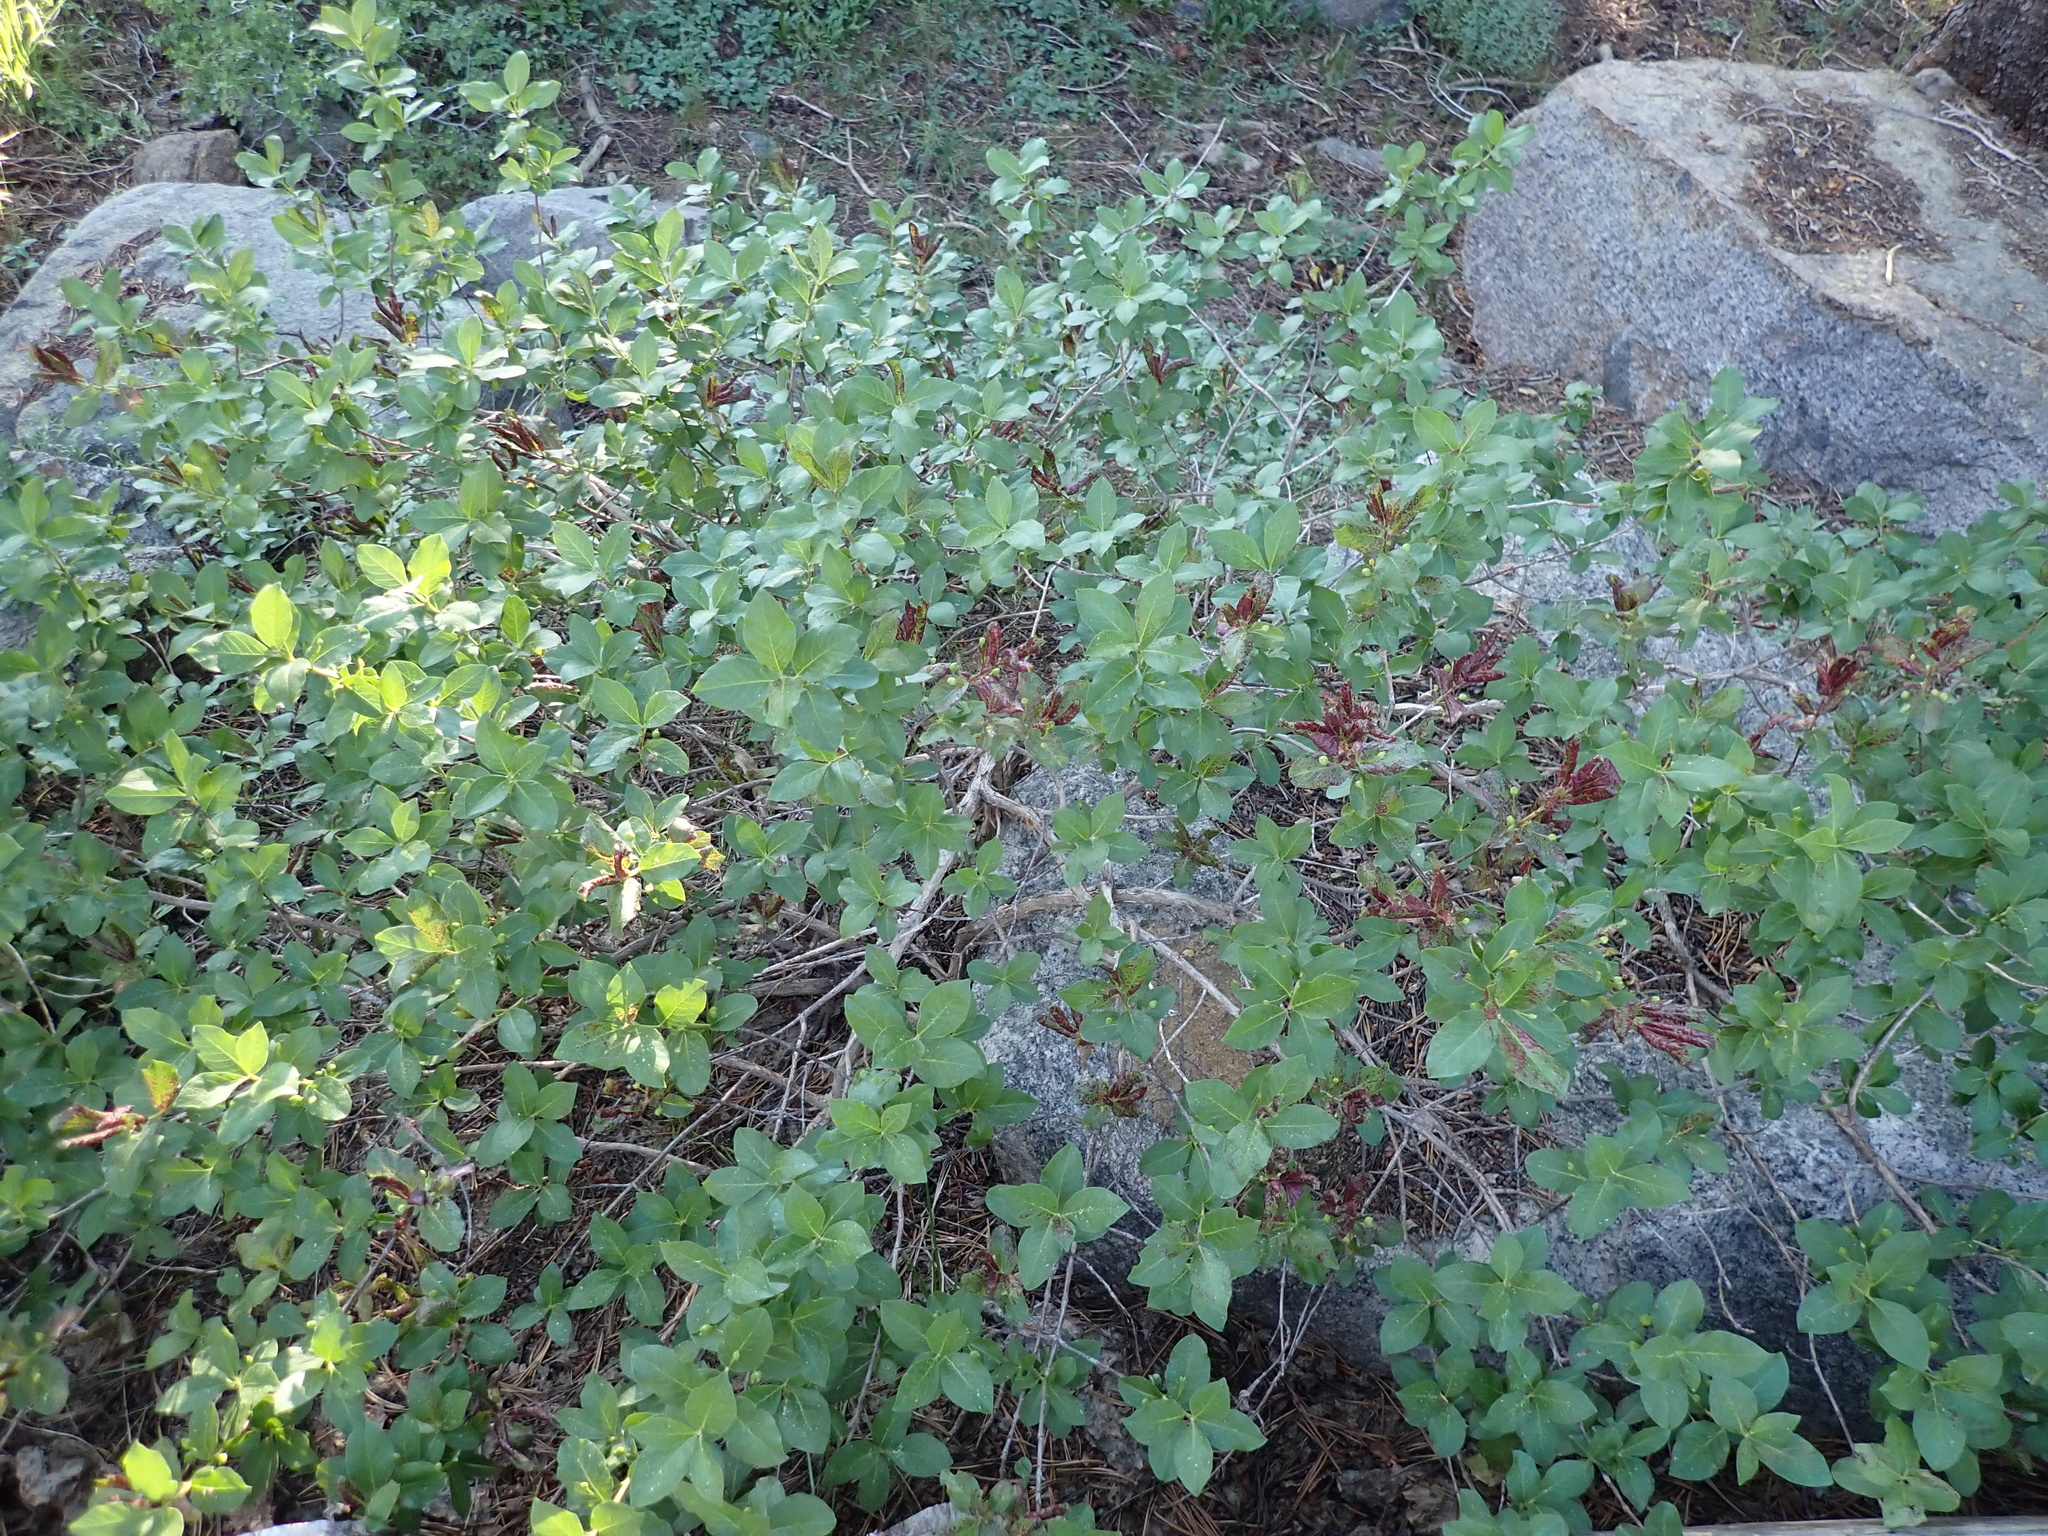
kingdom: Plantae
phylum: Tracheophyta
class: Magnoliopsida
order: Dipsacales
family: Caprifoliaceae
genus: Lonicera
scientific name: Lonicera conjugialis
